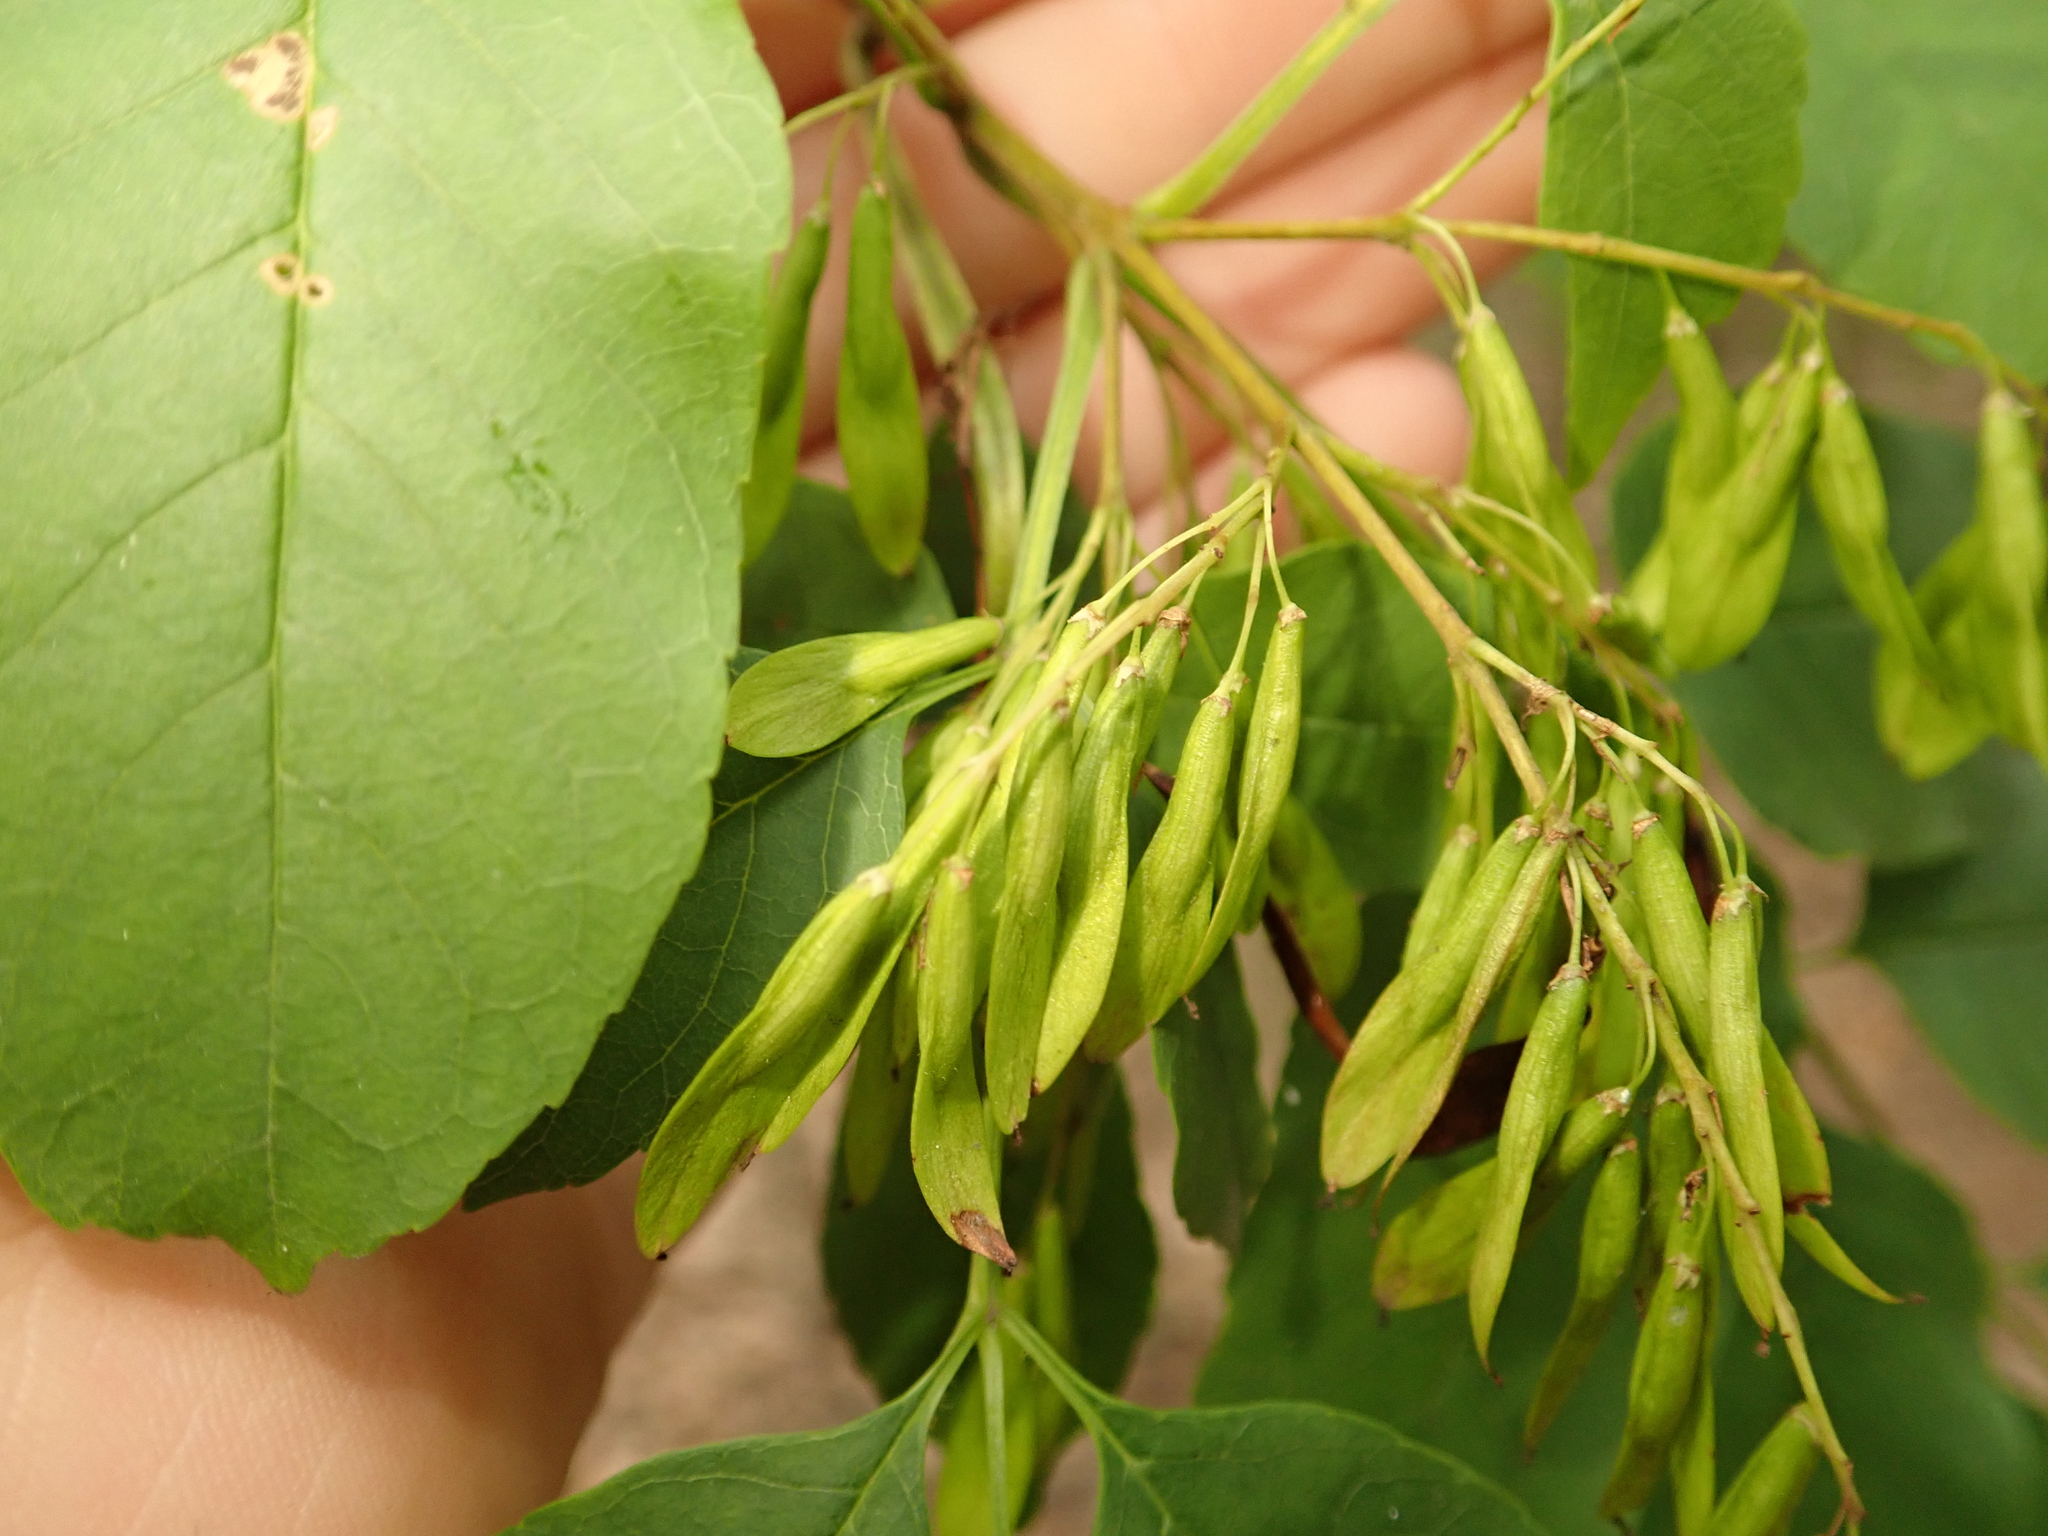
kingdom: Plantae
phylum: Tracheophyta
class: Magnoliopsida
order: Lamiales
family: Oleaceae
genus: Fraxinus
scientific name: Fraxinus ornus
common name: Manna ash
